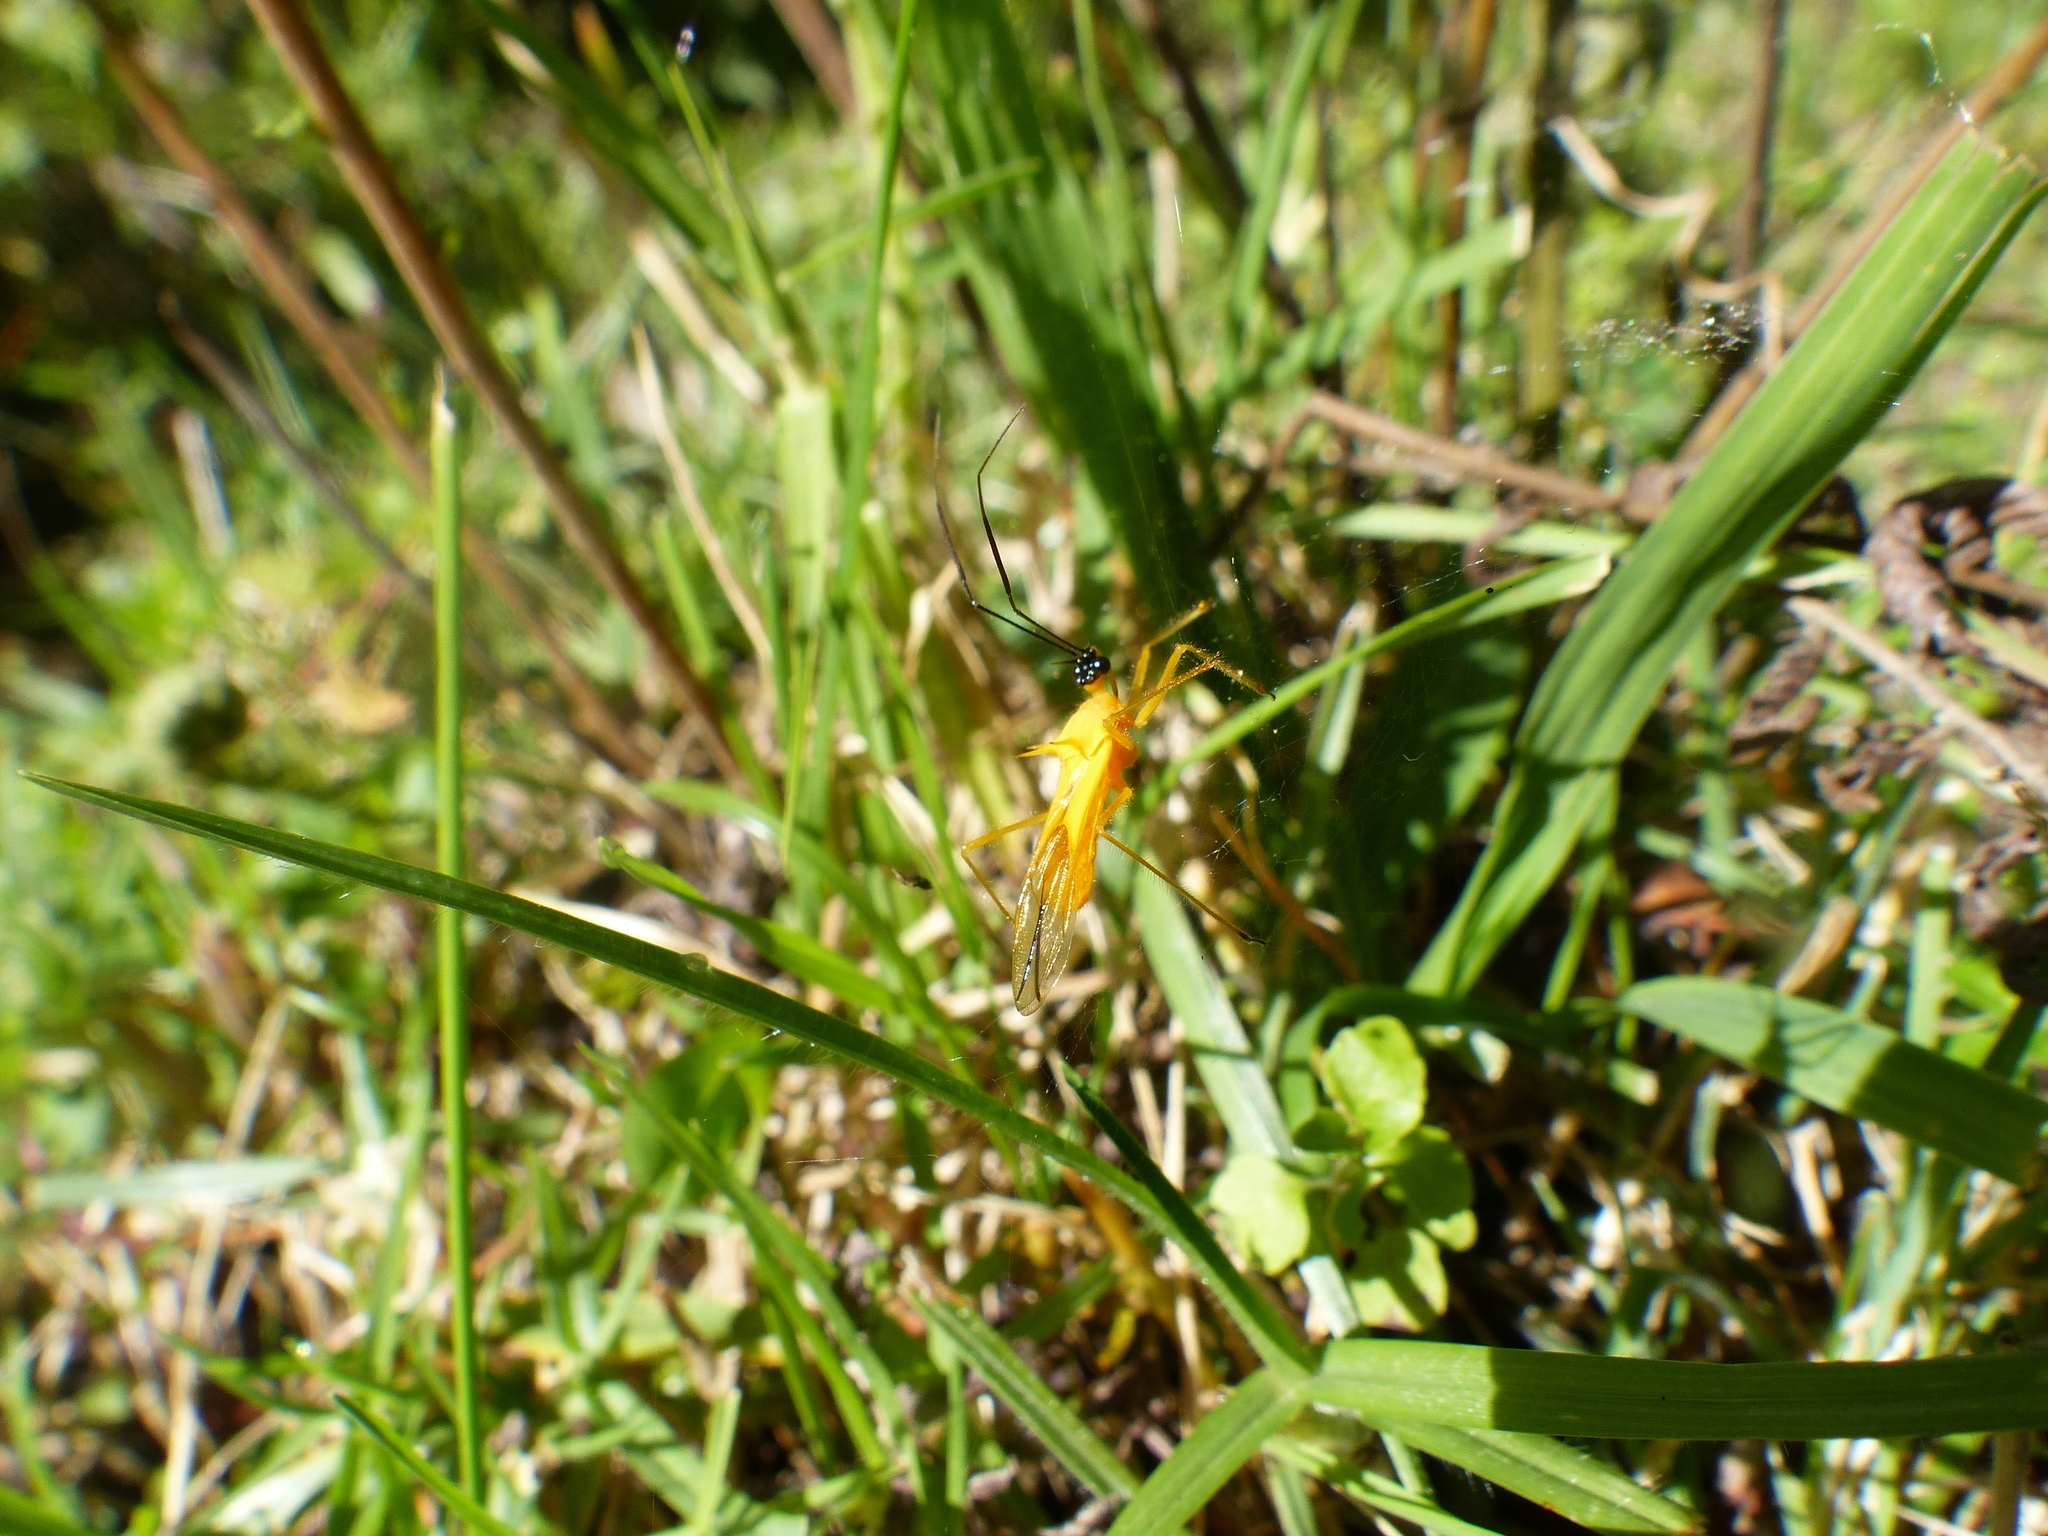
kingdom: Animalia
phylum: Arthropoda
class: Insecta
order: Hemiptera
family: Reduviidae
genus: Corcia
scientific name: Corcia columbica
